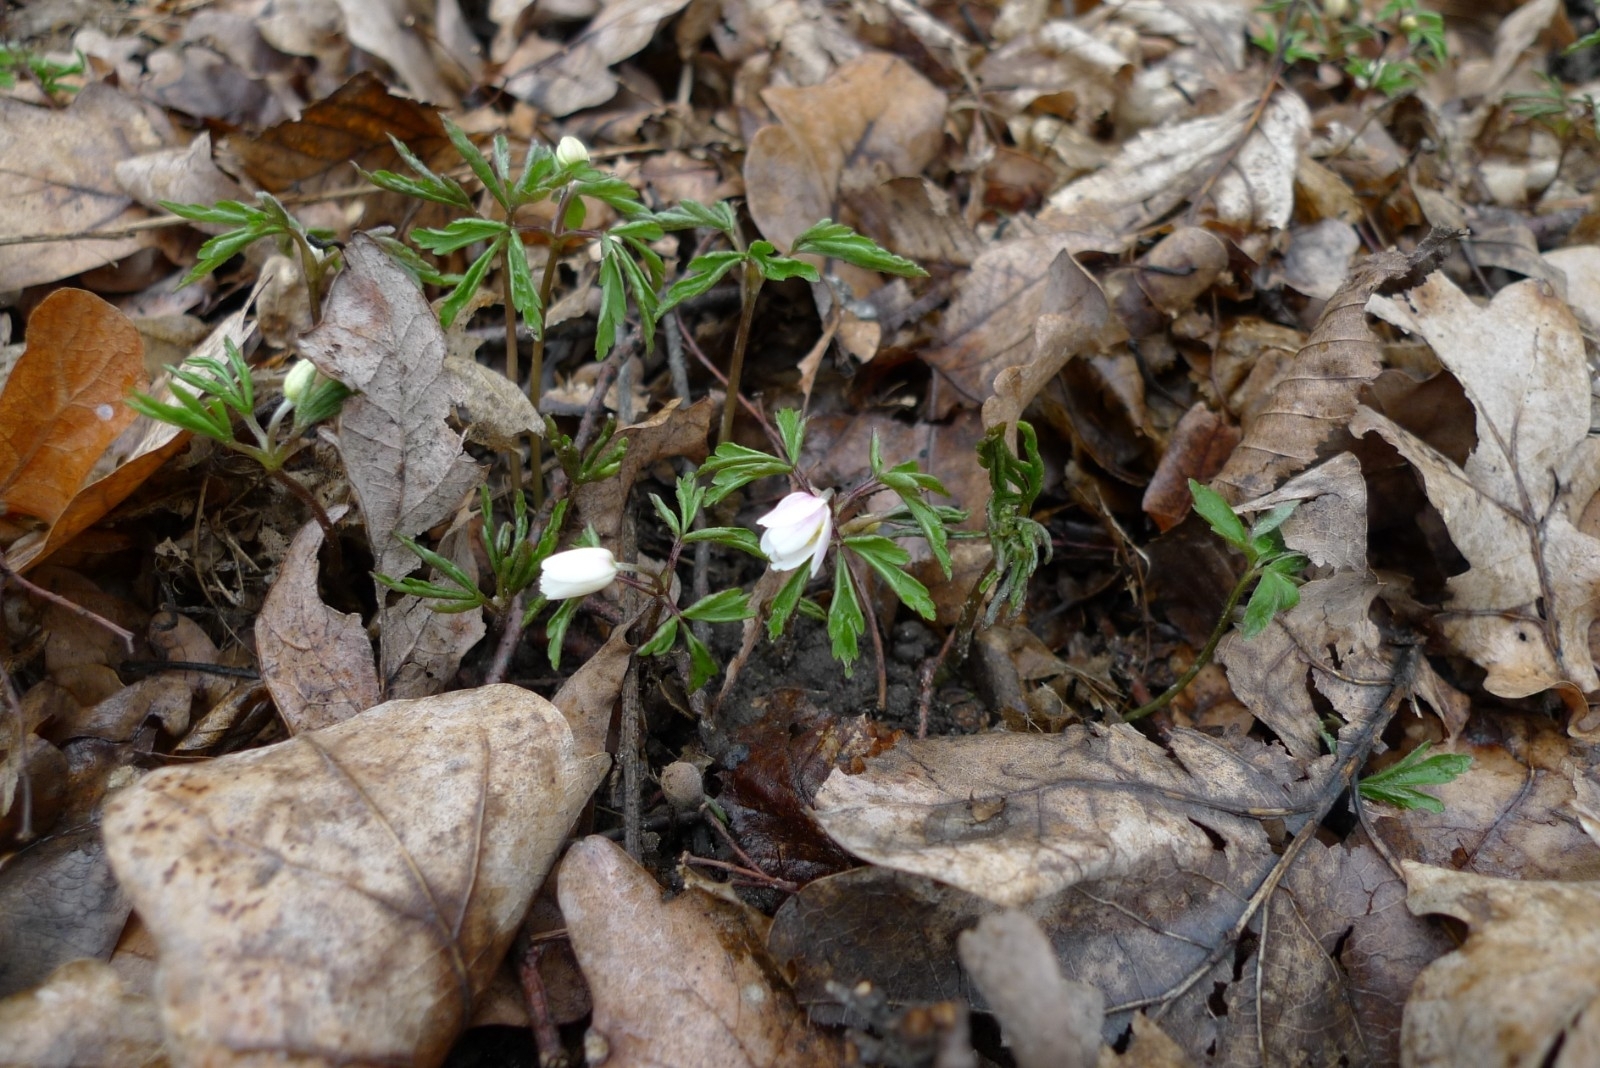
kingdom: Plantae
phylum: Tracheophyta
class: Magnoliopsida
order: Ranunculales
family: Ranunculaceae
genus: Anemone
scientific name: Anemone nemorosa
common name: Wood anemone
